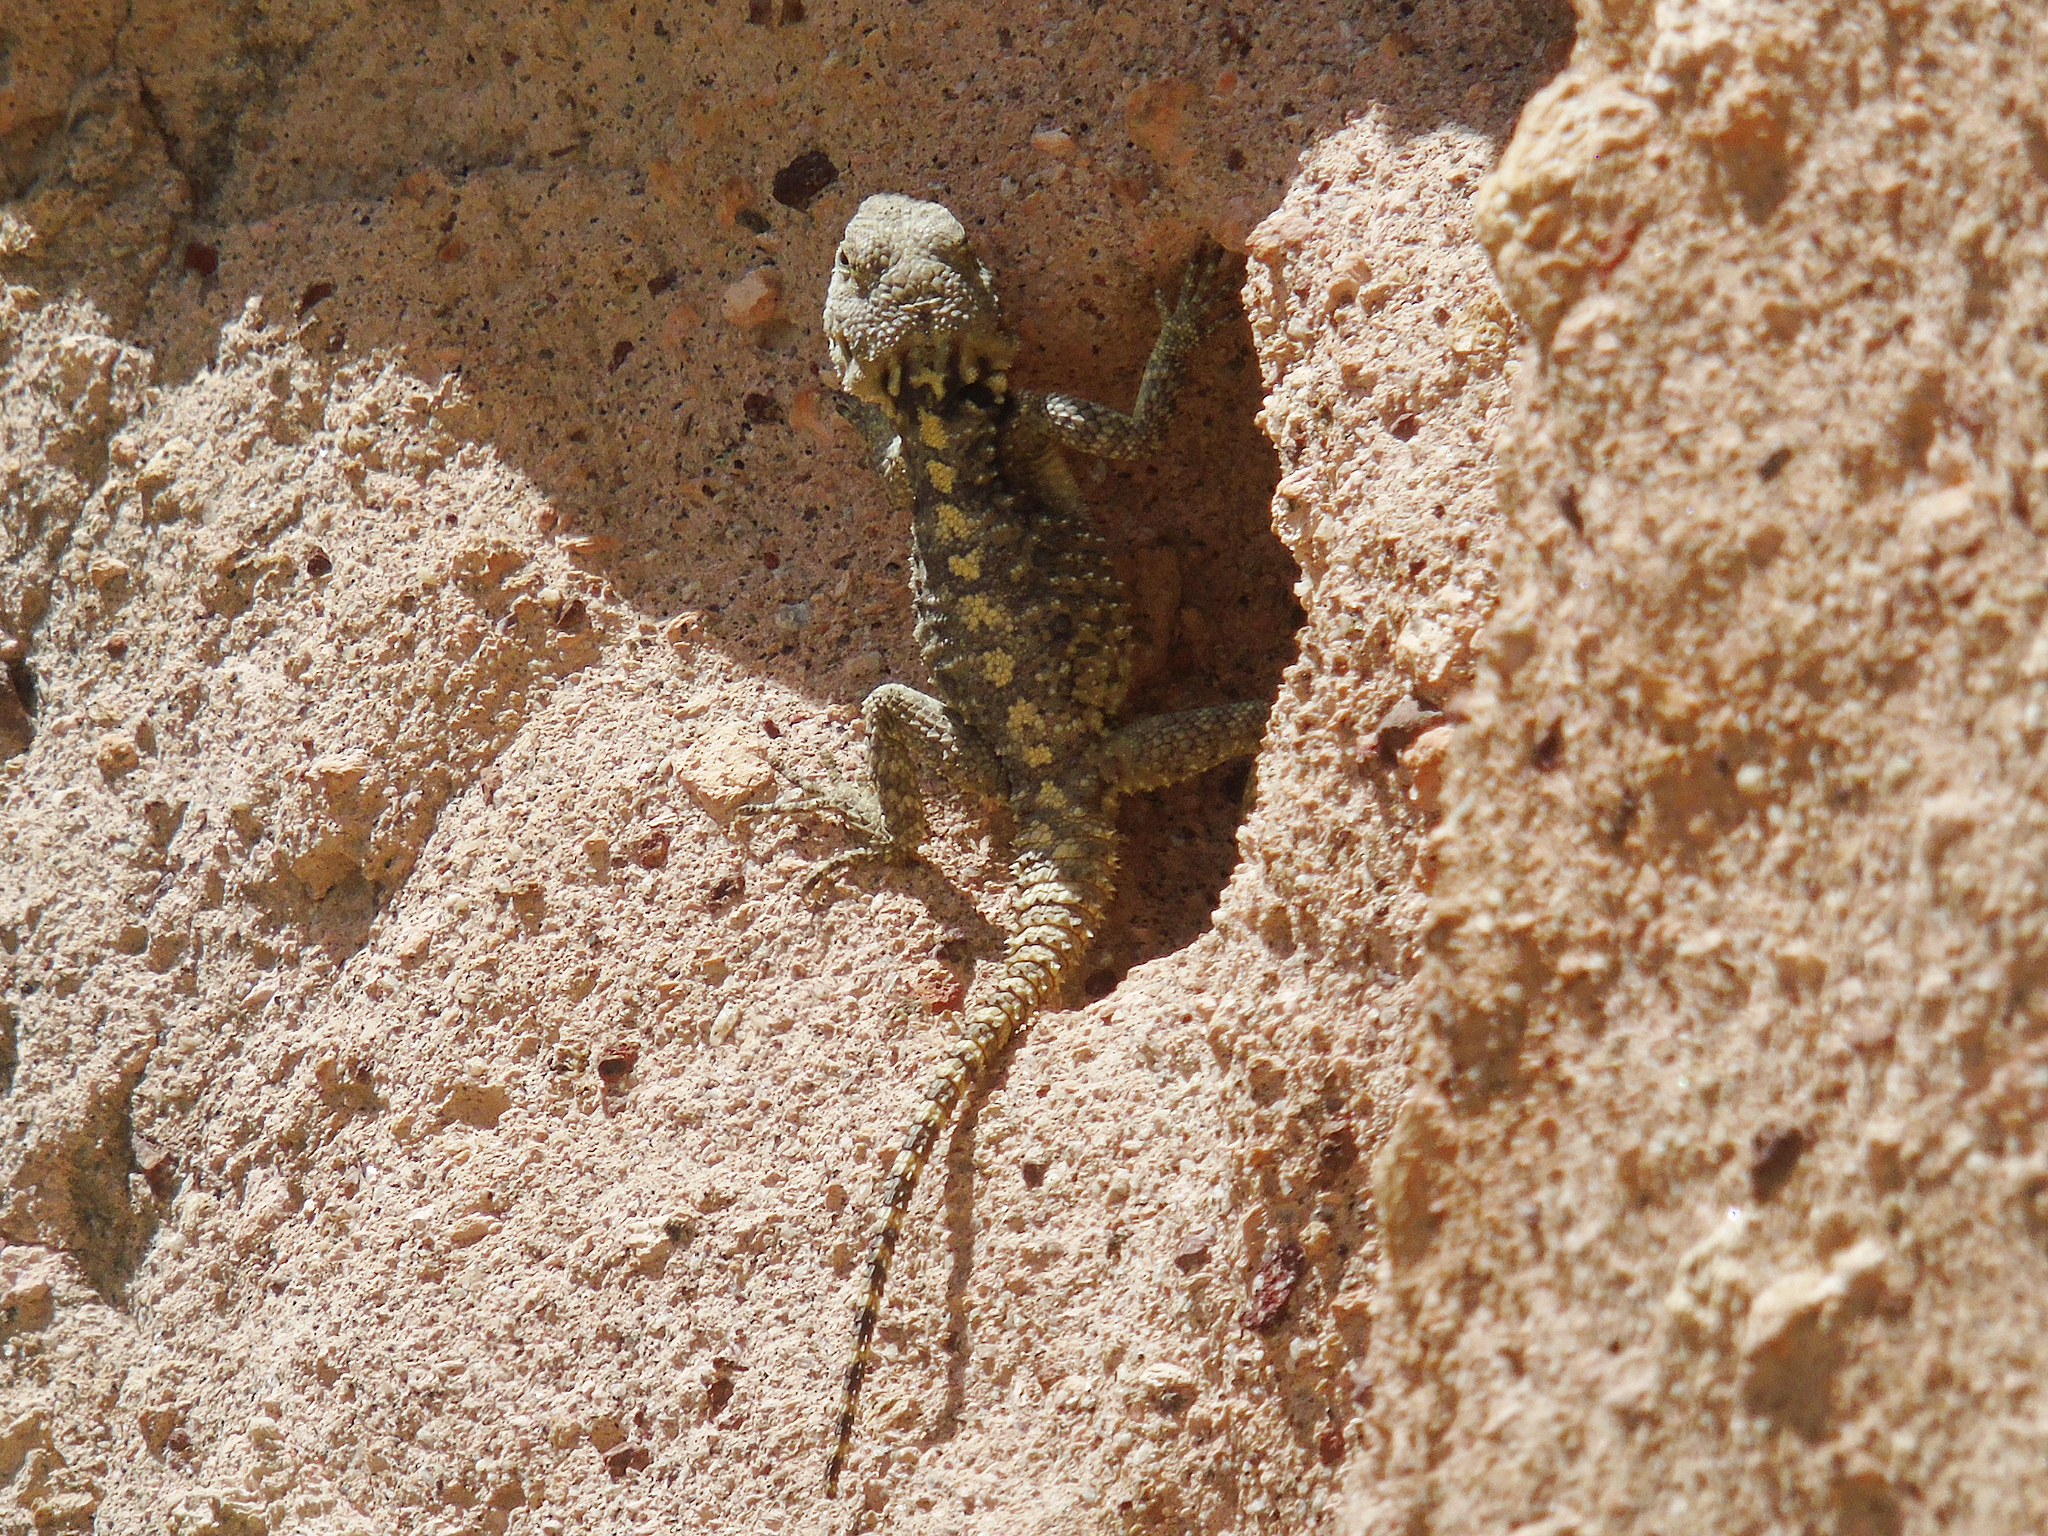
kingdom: Animalia
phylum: Chordata
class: Squamata
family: Agamidae
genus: Stellagama
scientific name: Stellagama stellio
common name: Starred agama
